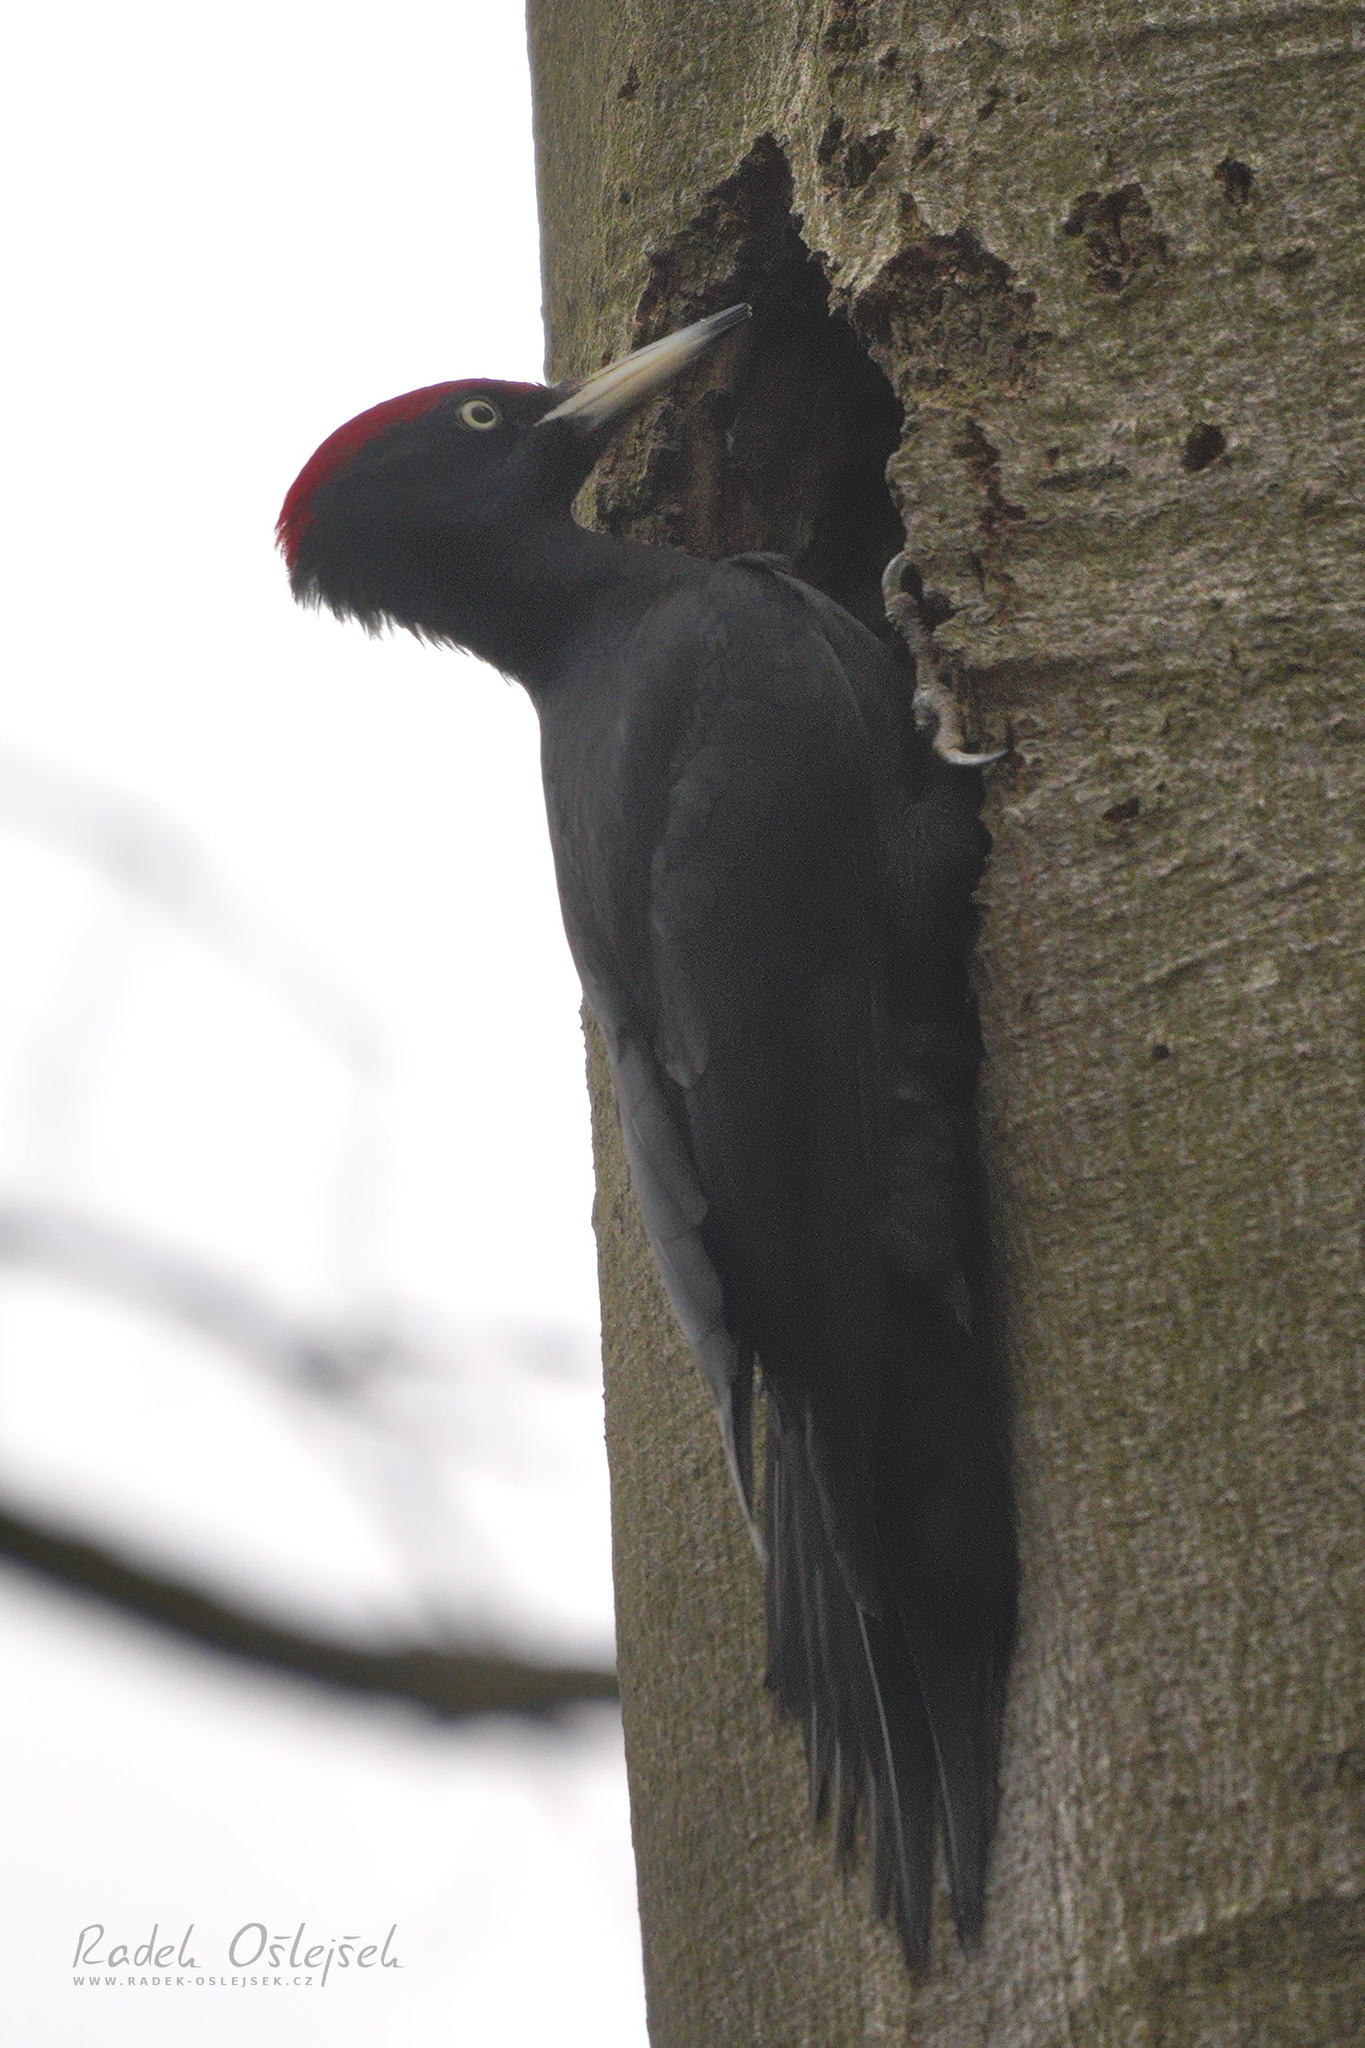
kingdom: Animalia
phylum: Chordata
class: Aves
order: Piciformes
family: Picidae
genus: Dryocopus
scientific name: Dryocopus martius
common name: Black woodpecker
